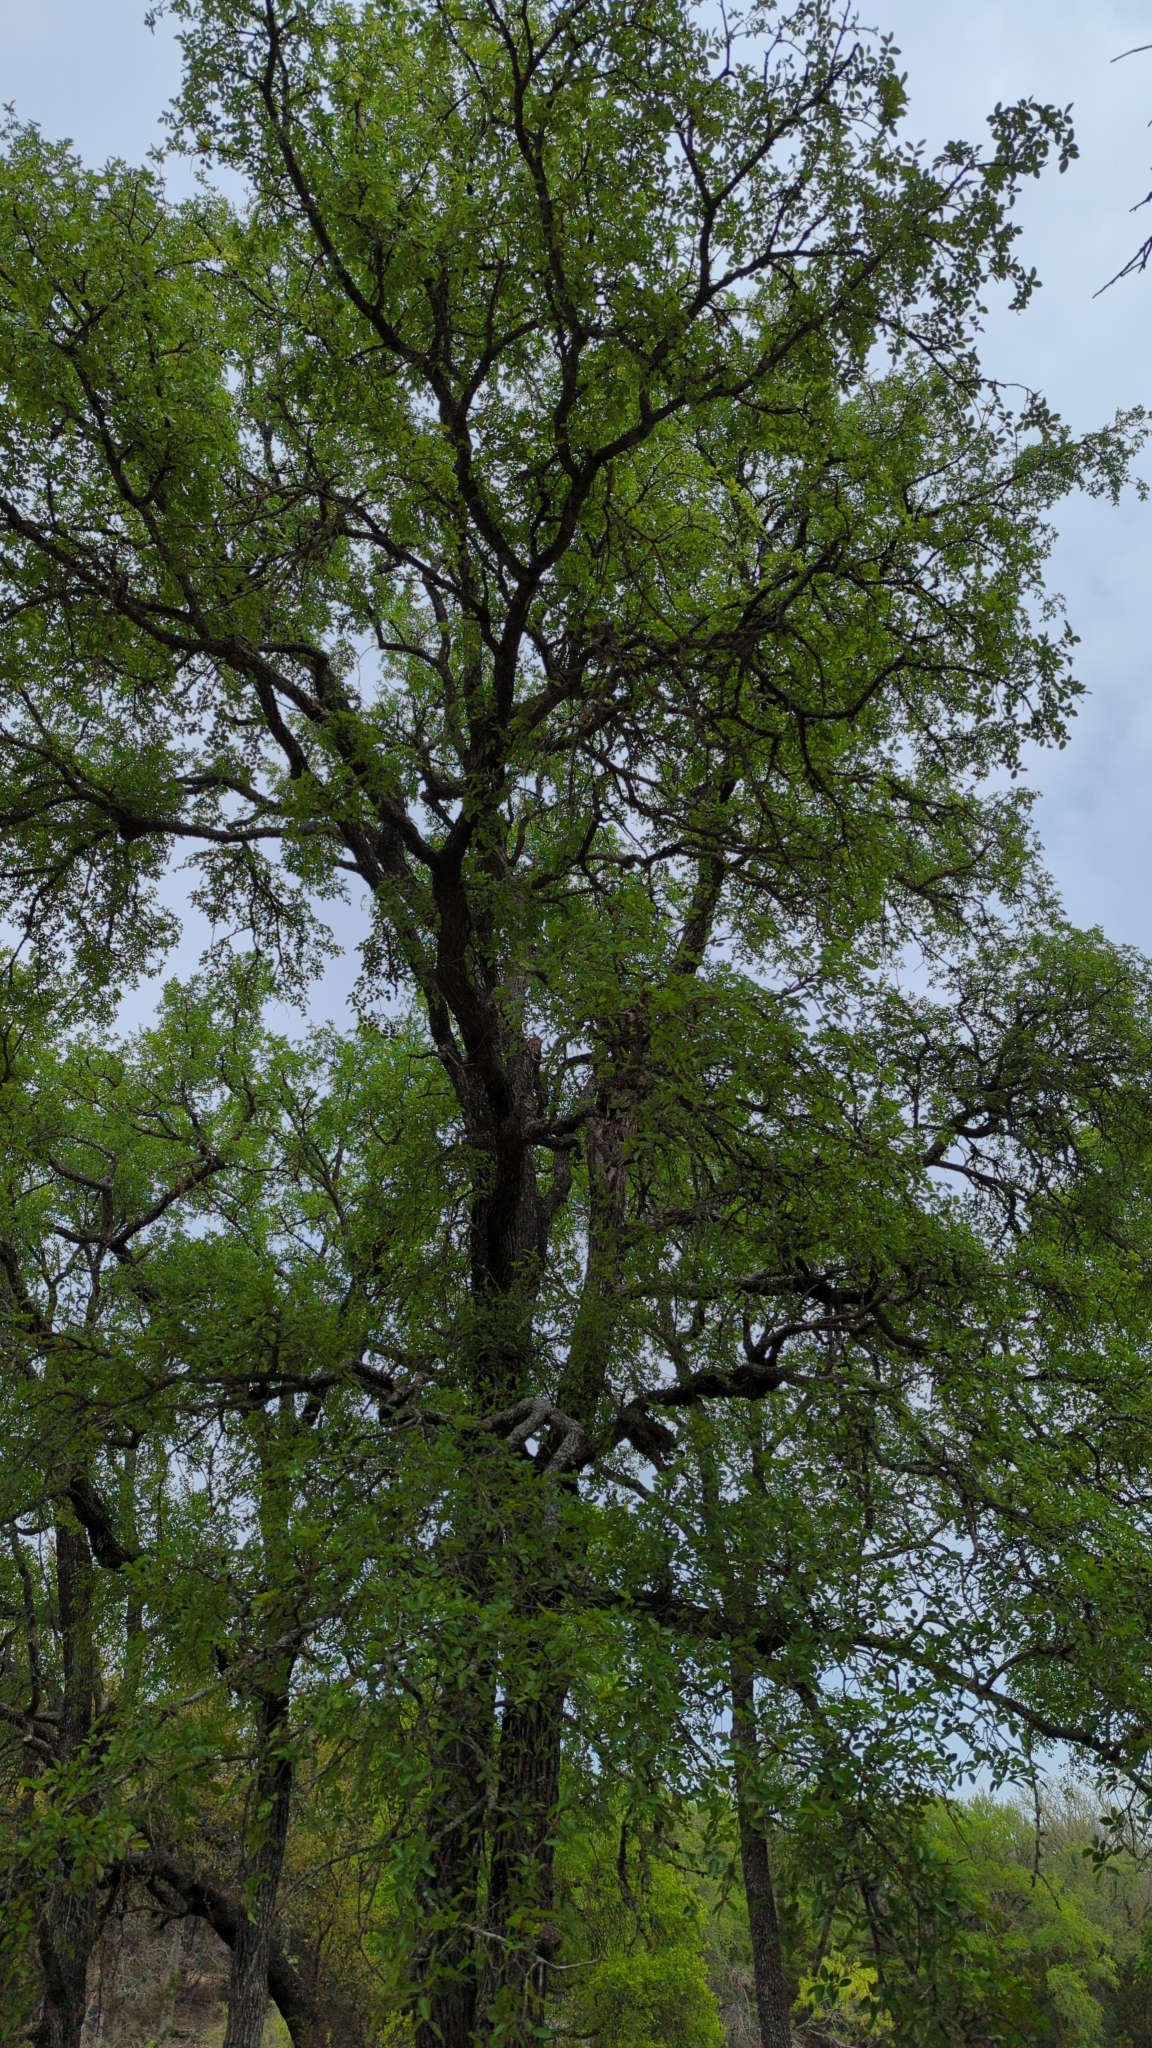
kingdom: Plantae
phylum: Tracheophyta
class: Magnoliopsida
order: Rosales
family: Ulmaceae
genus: Ulmus
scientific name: Ulmus crassifolia
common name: Basket elm
